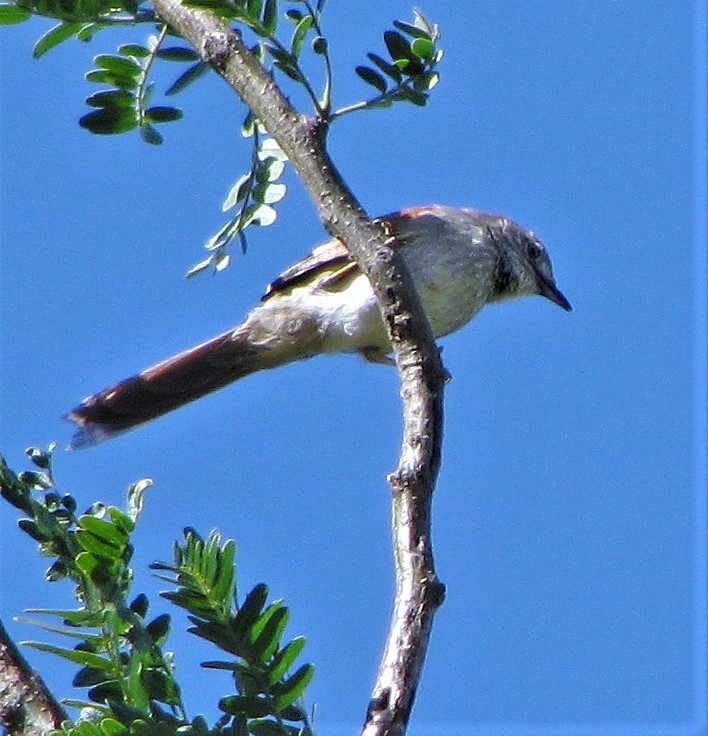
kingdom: Animalia
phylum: Chordata
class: Aves
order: Passeriformes
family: Furnariidae
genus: Synallaxis
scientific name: Synallaxis albescens
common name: Pale-breasted spinetail
